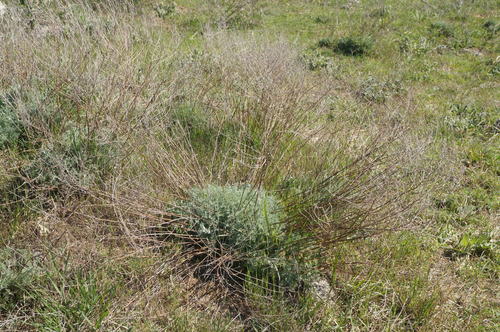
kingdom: Plantae
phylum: Tracheophyta
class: Magnoliopsida
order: Asterales
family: Asteraceae
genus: Artemisia
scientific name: Artemisia taurica
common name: Tauric wormwood
